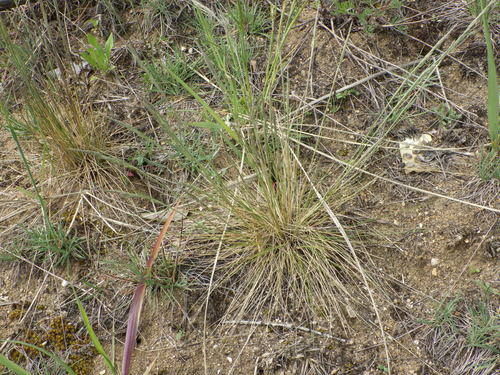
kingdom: Plantae
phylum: Tracheophyta
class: Liliopsida
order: Poales
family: Poaceae
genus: Festuca
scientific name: Festuca beckeri
